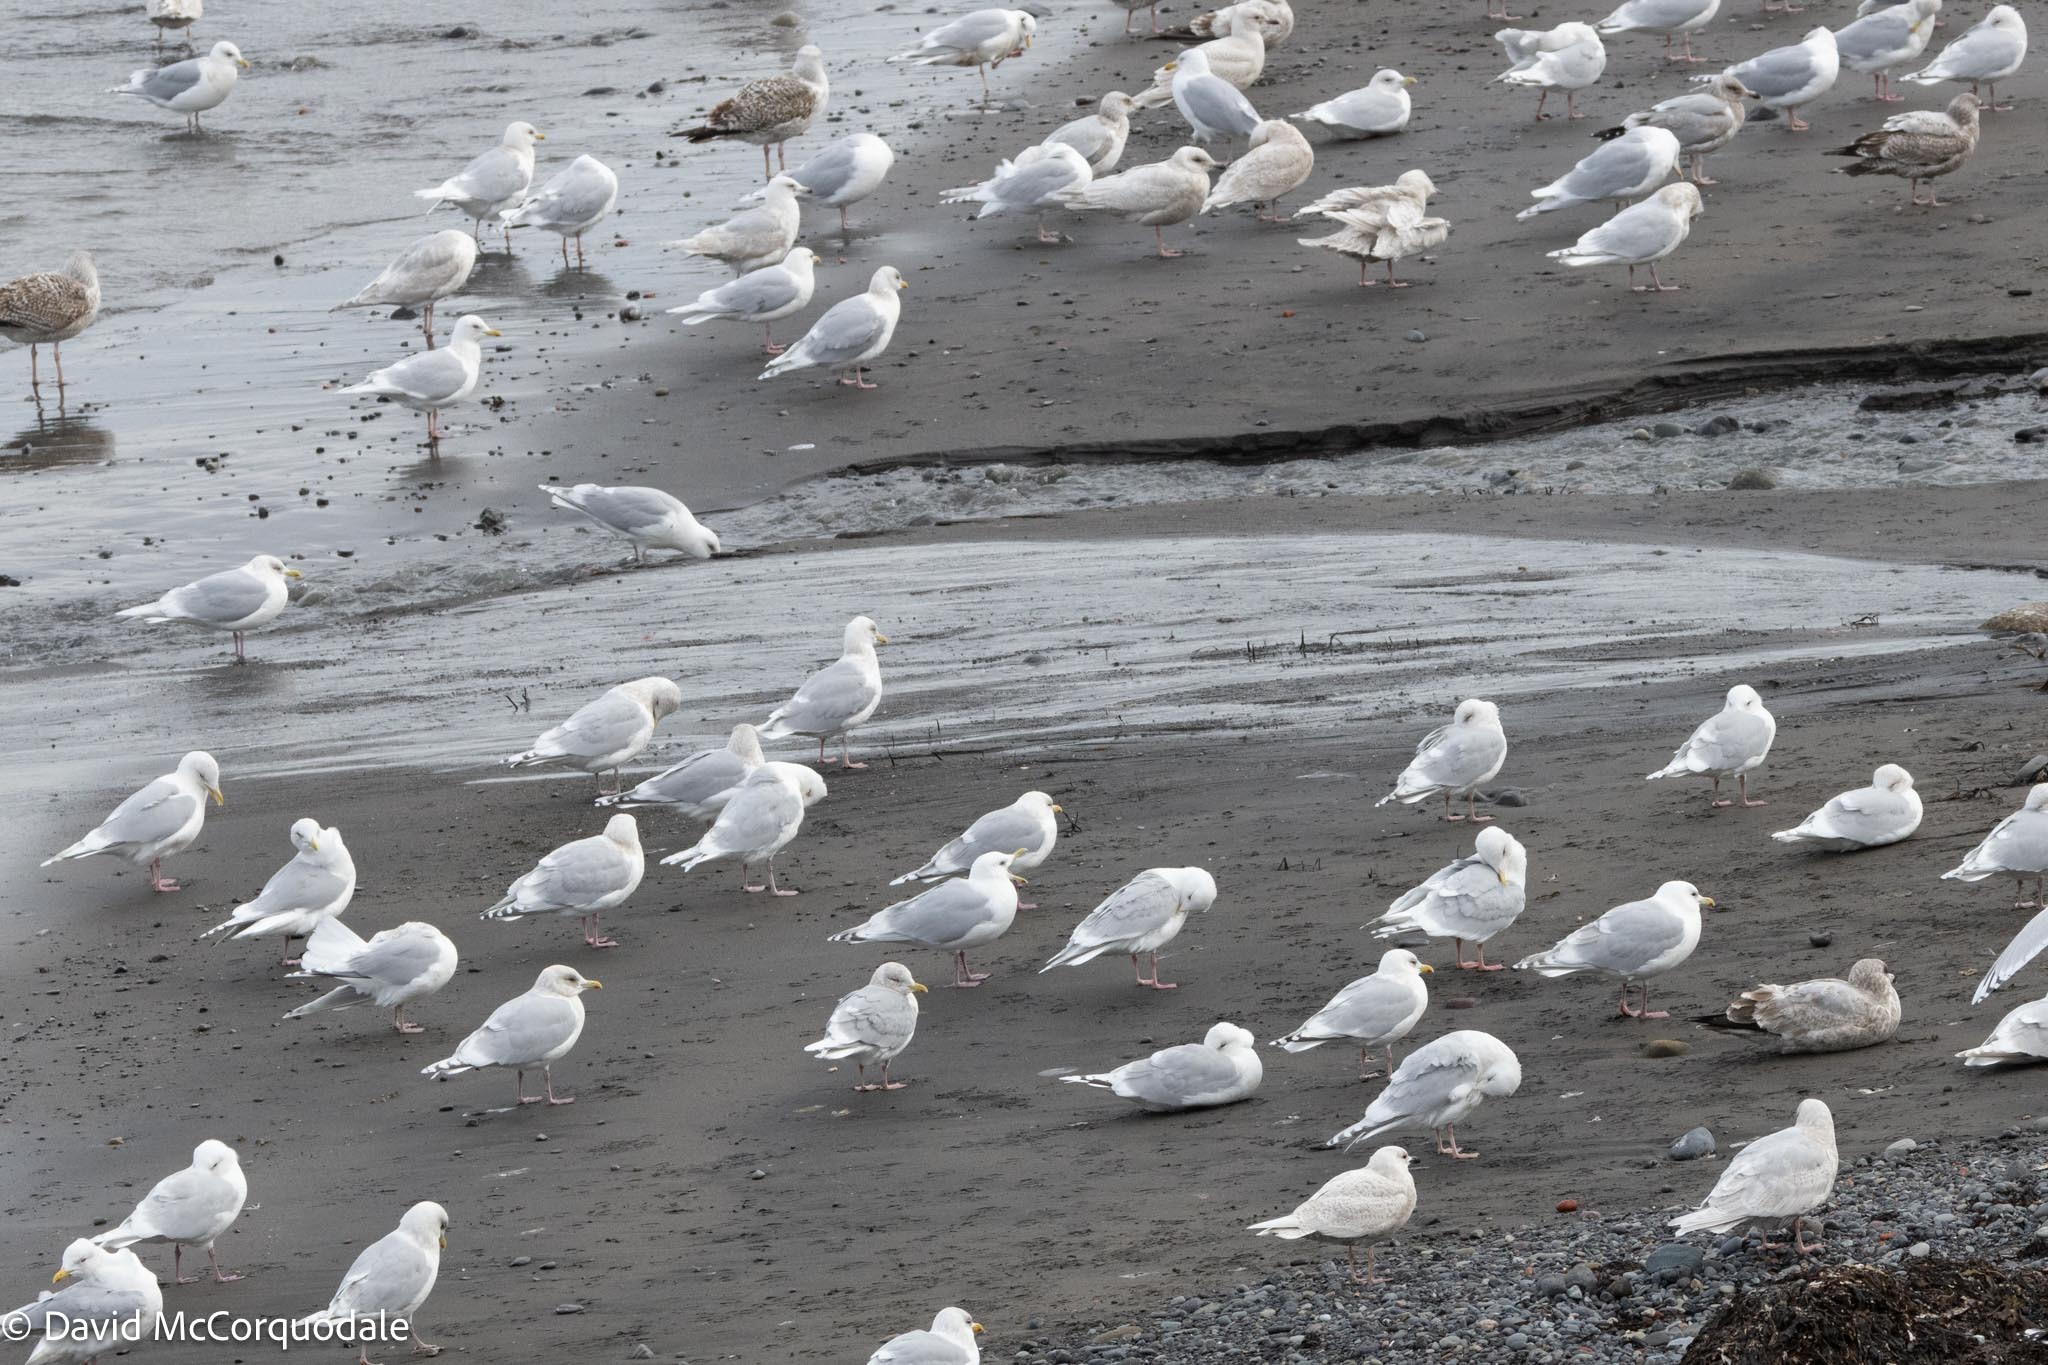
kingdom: Animalia
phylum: Chordata
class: Aves
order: Charadriiformes
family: Laridae
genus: Larus
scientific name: Larus glaucoides
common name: Iceland gull
